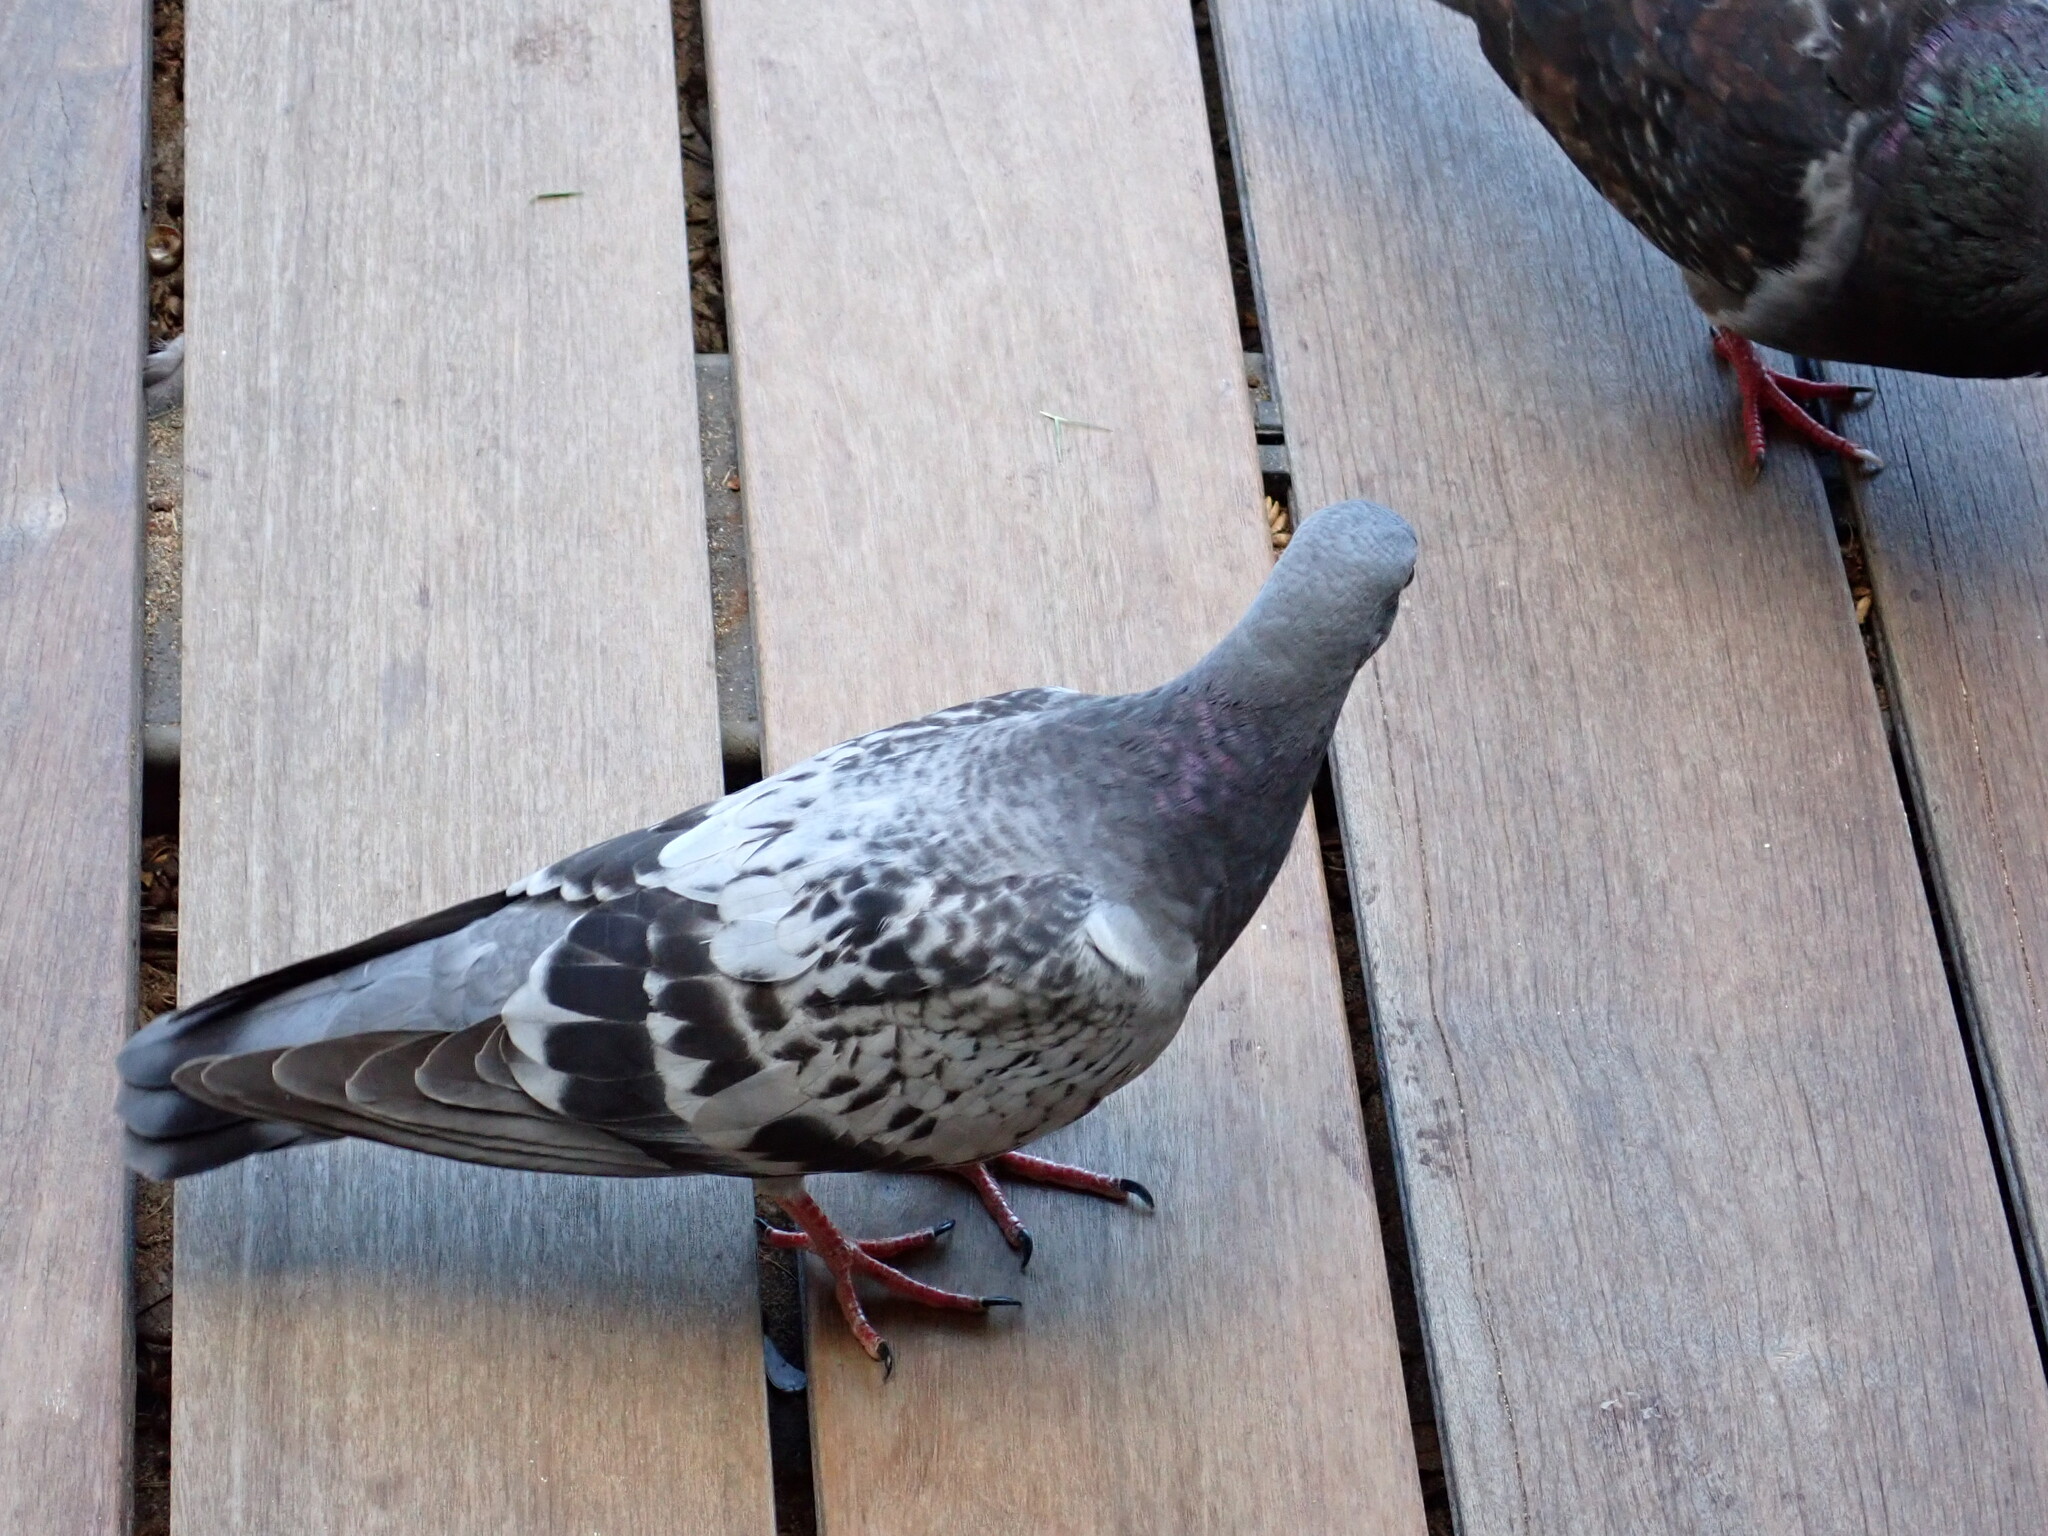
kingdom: Animalia
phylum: Chordata
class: Aves
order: Columbiformes
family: Columbidae
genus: Columba
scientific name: Columba livia
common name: Rock pigeon
